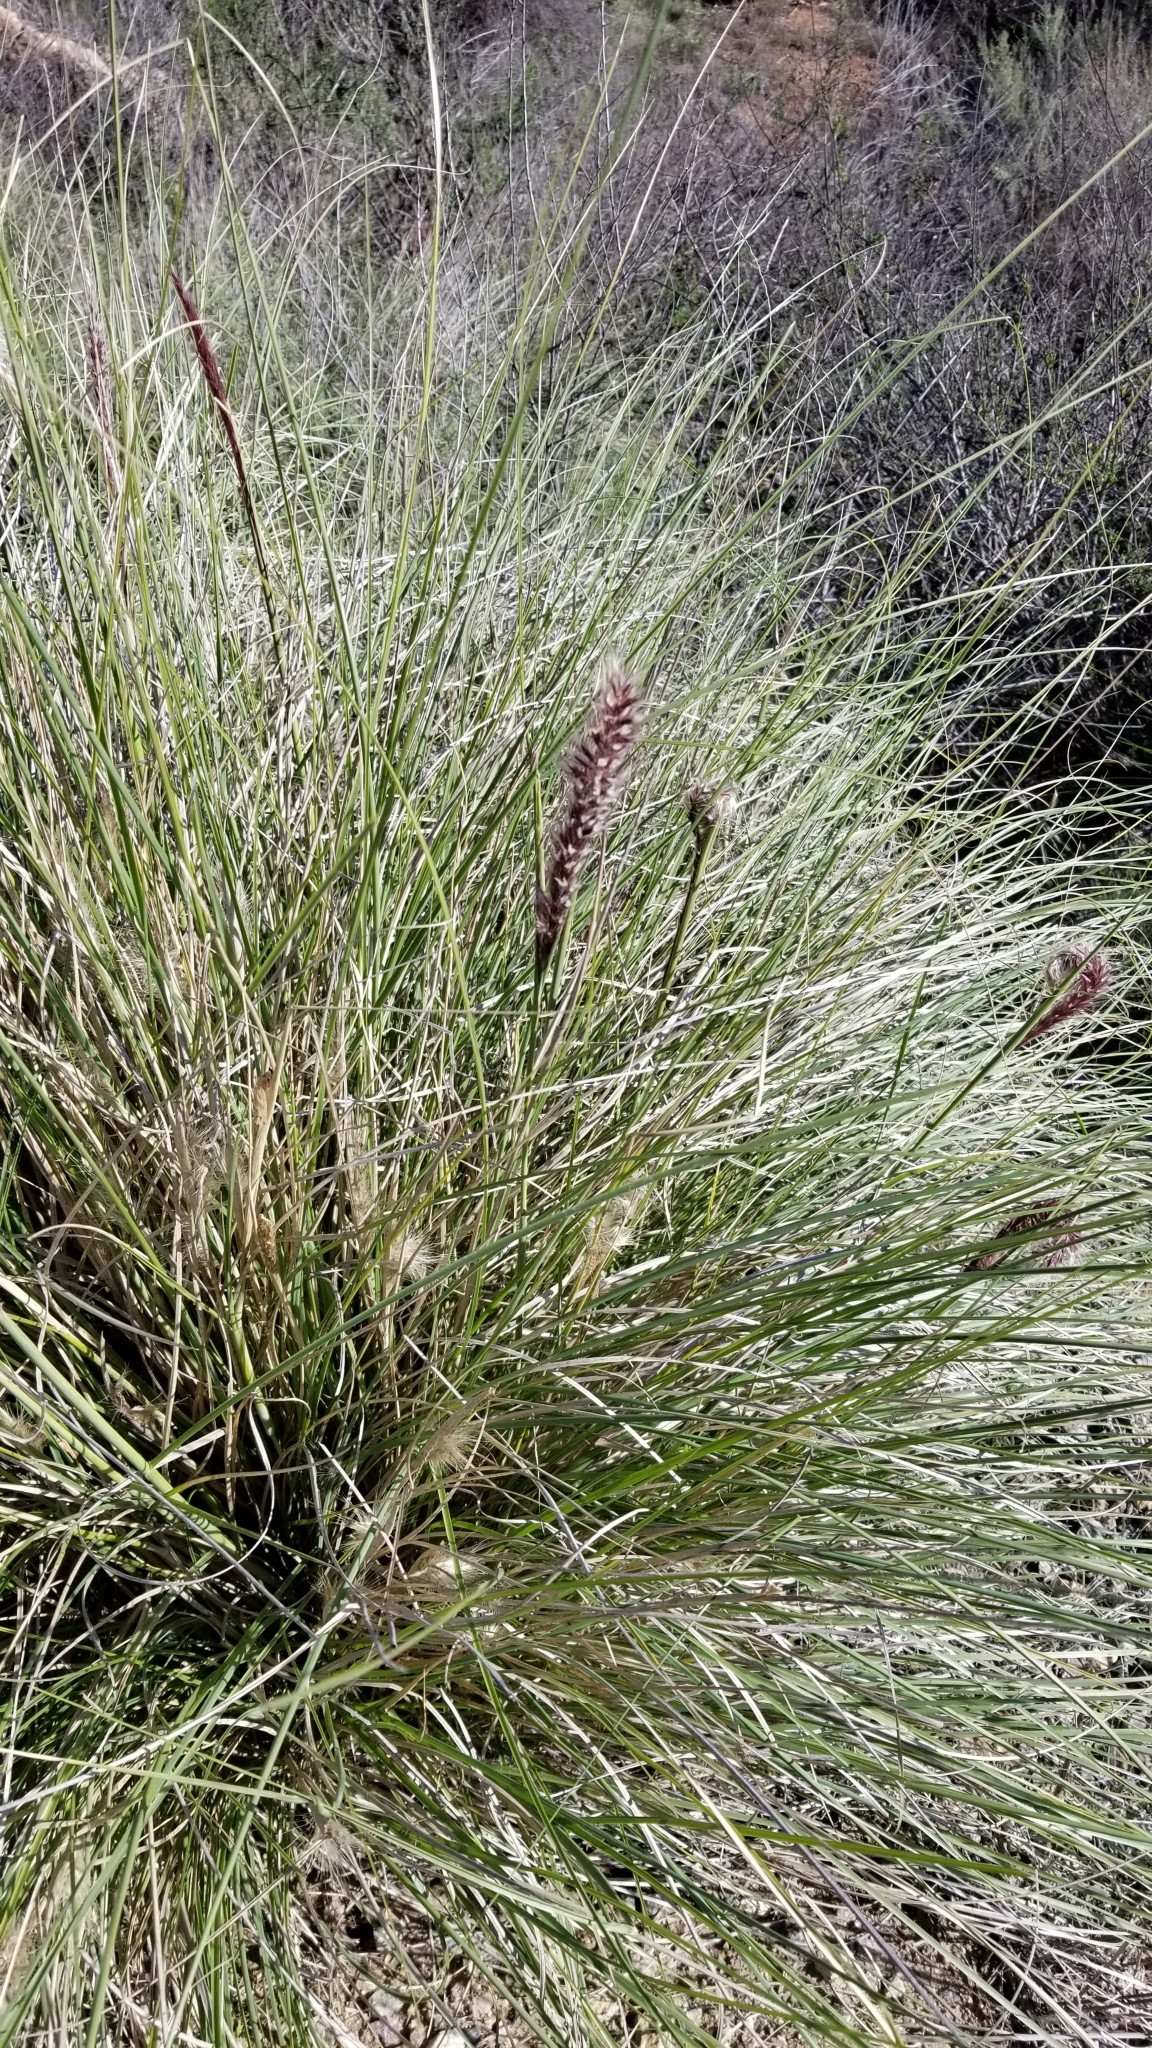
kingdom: Plantae
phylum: Tracheophyta
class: Liliopsida
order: Poales
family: Poaceae
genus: Cenchrus
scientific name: Cenchrus setaceus
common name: Crimson fountaingrass
